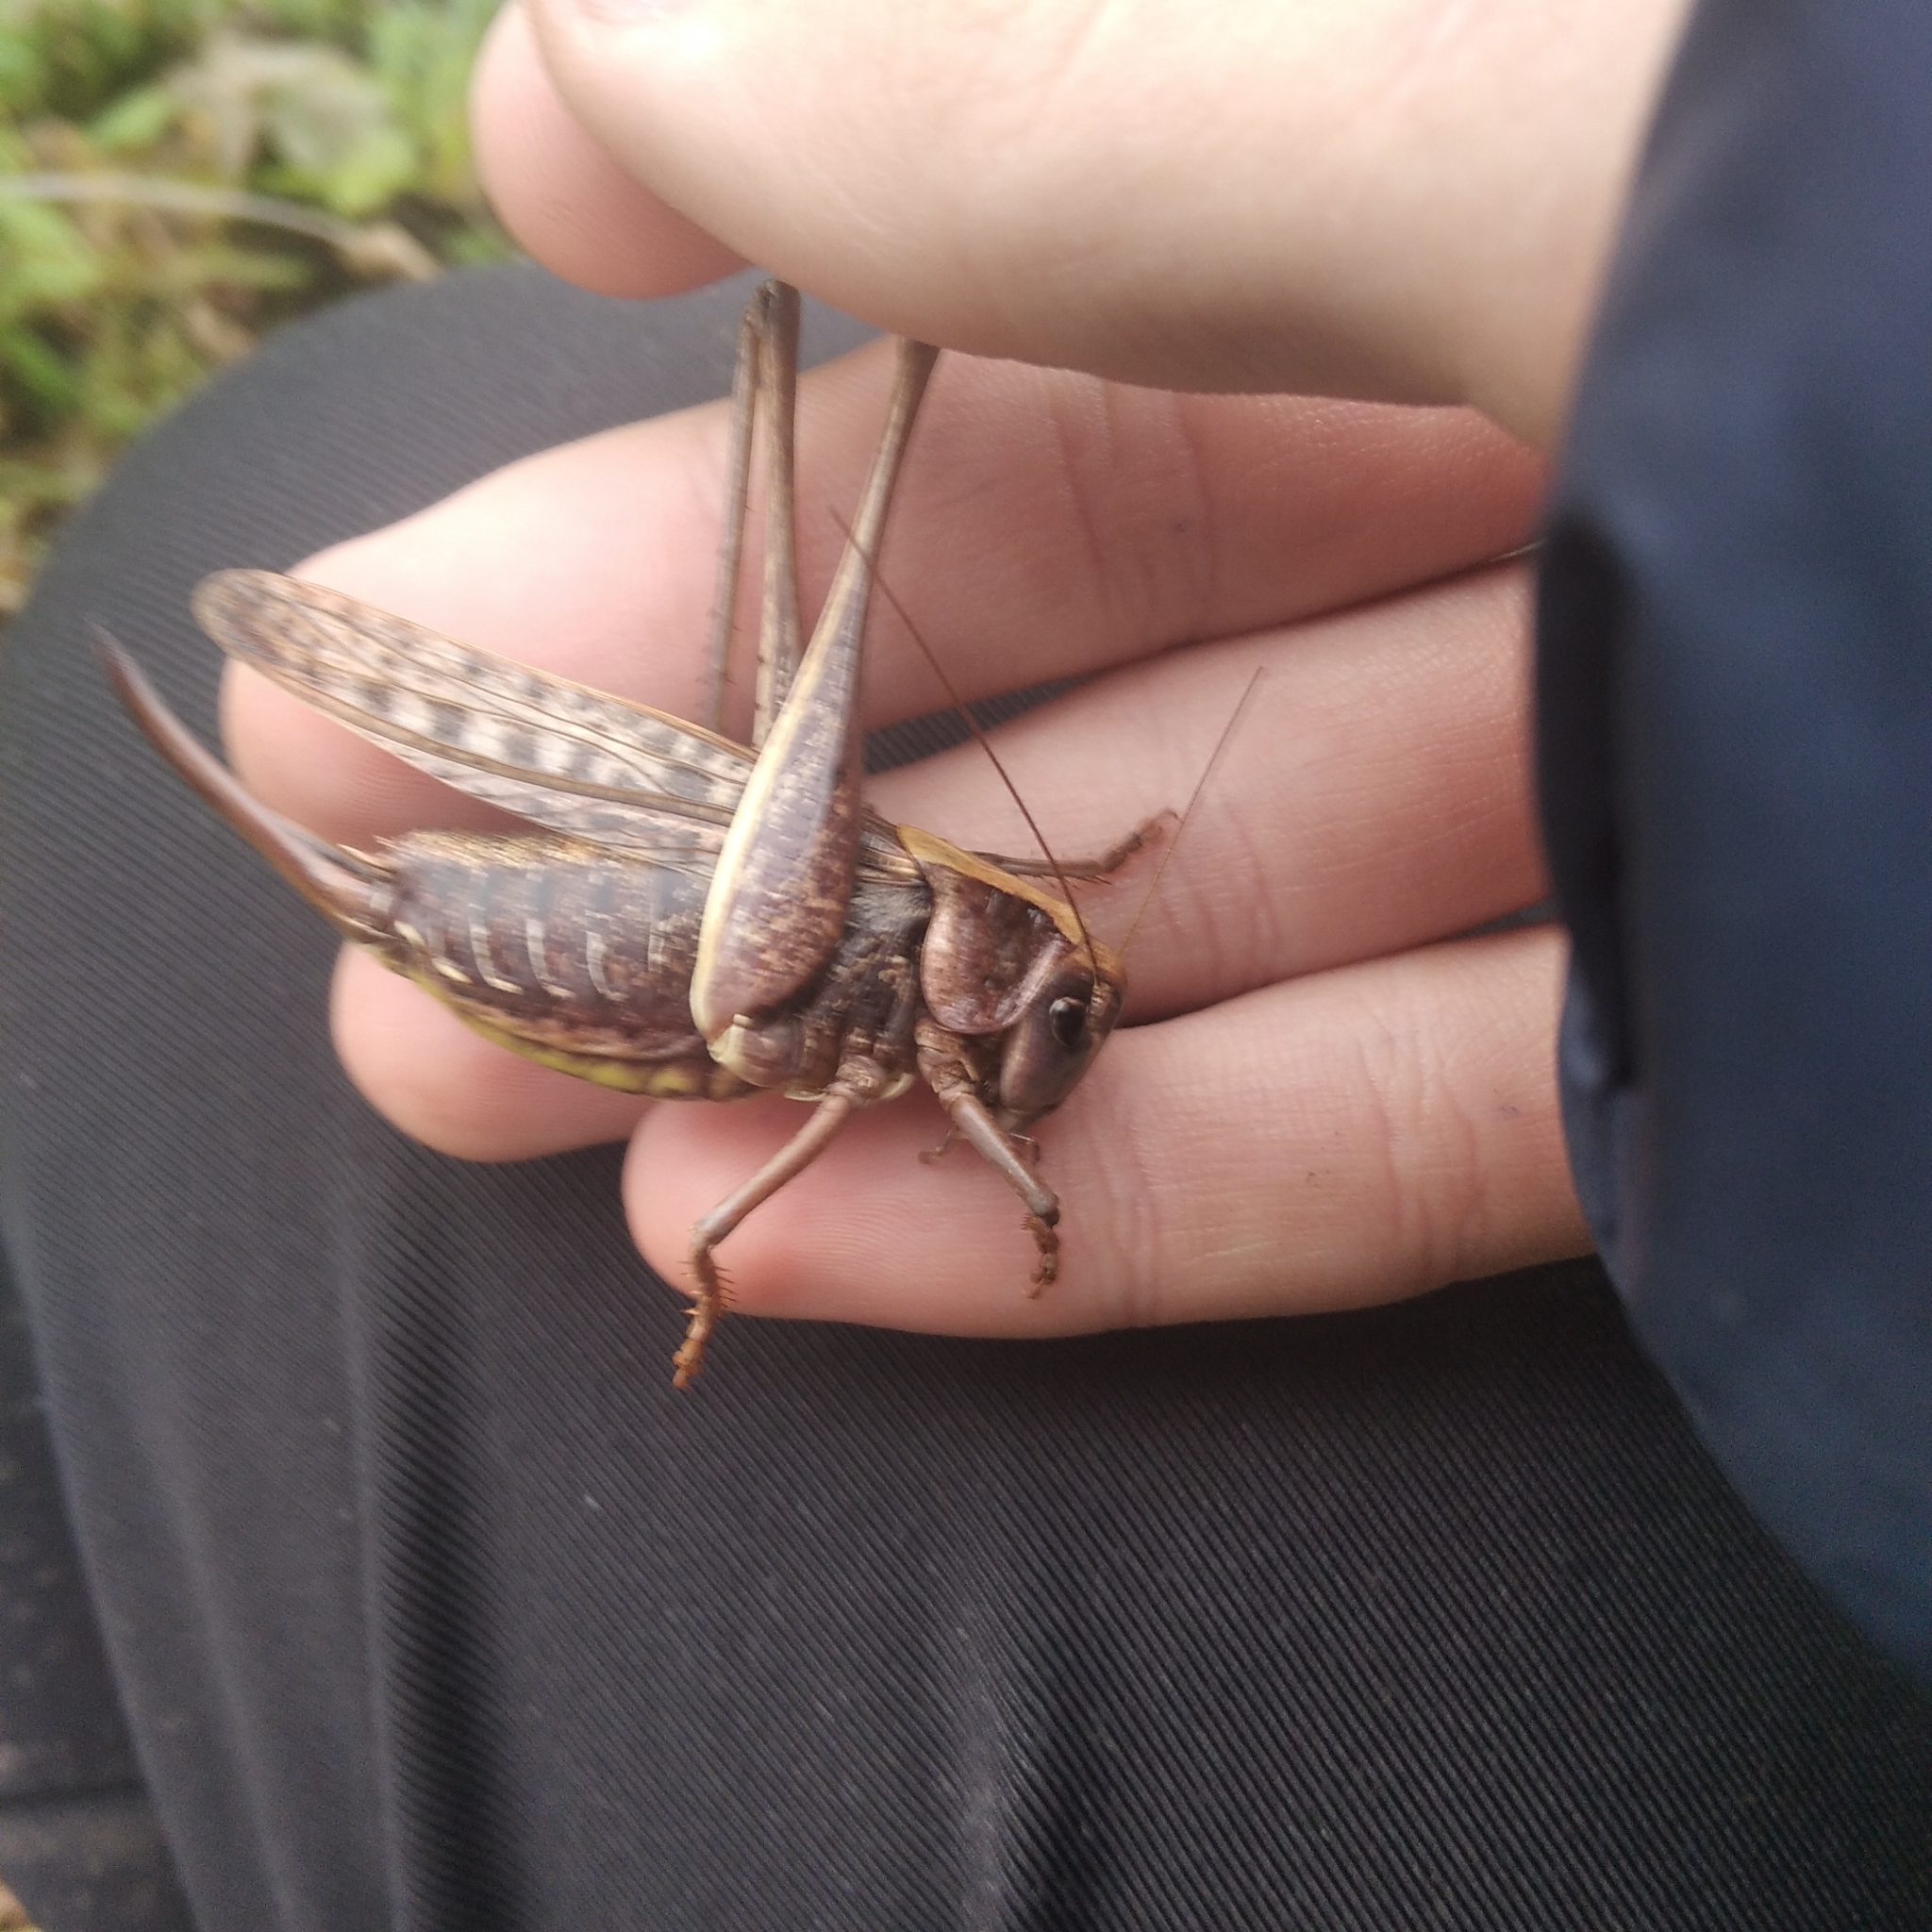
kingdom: Animalia
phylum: Arthropoda
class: Insecta
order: Orthoptera
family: Tettigoniidae
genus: Decticus
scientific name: Decticus verrucivorus
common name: Wart-biter
